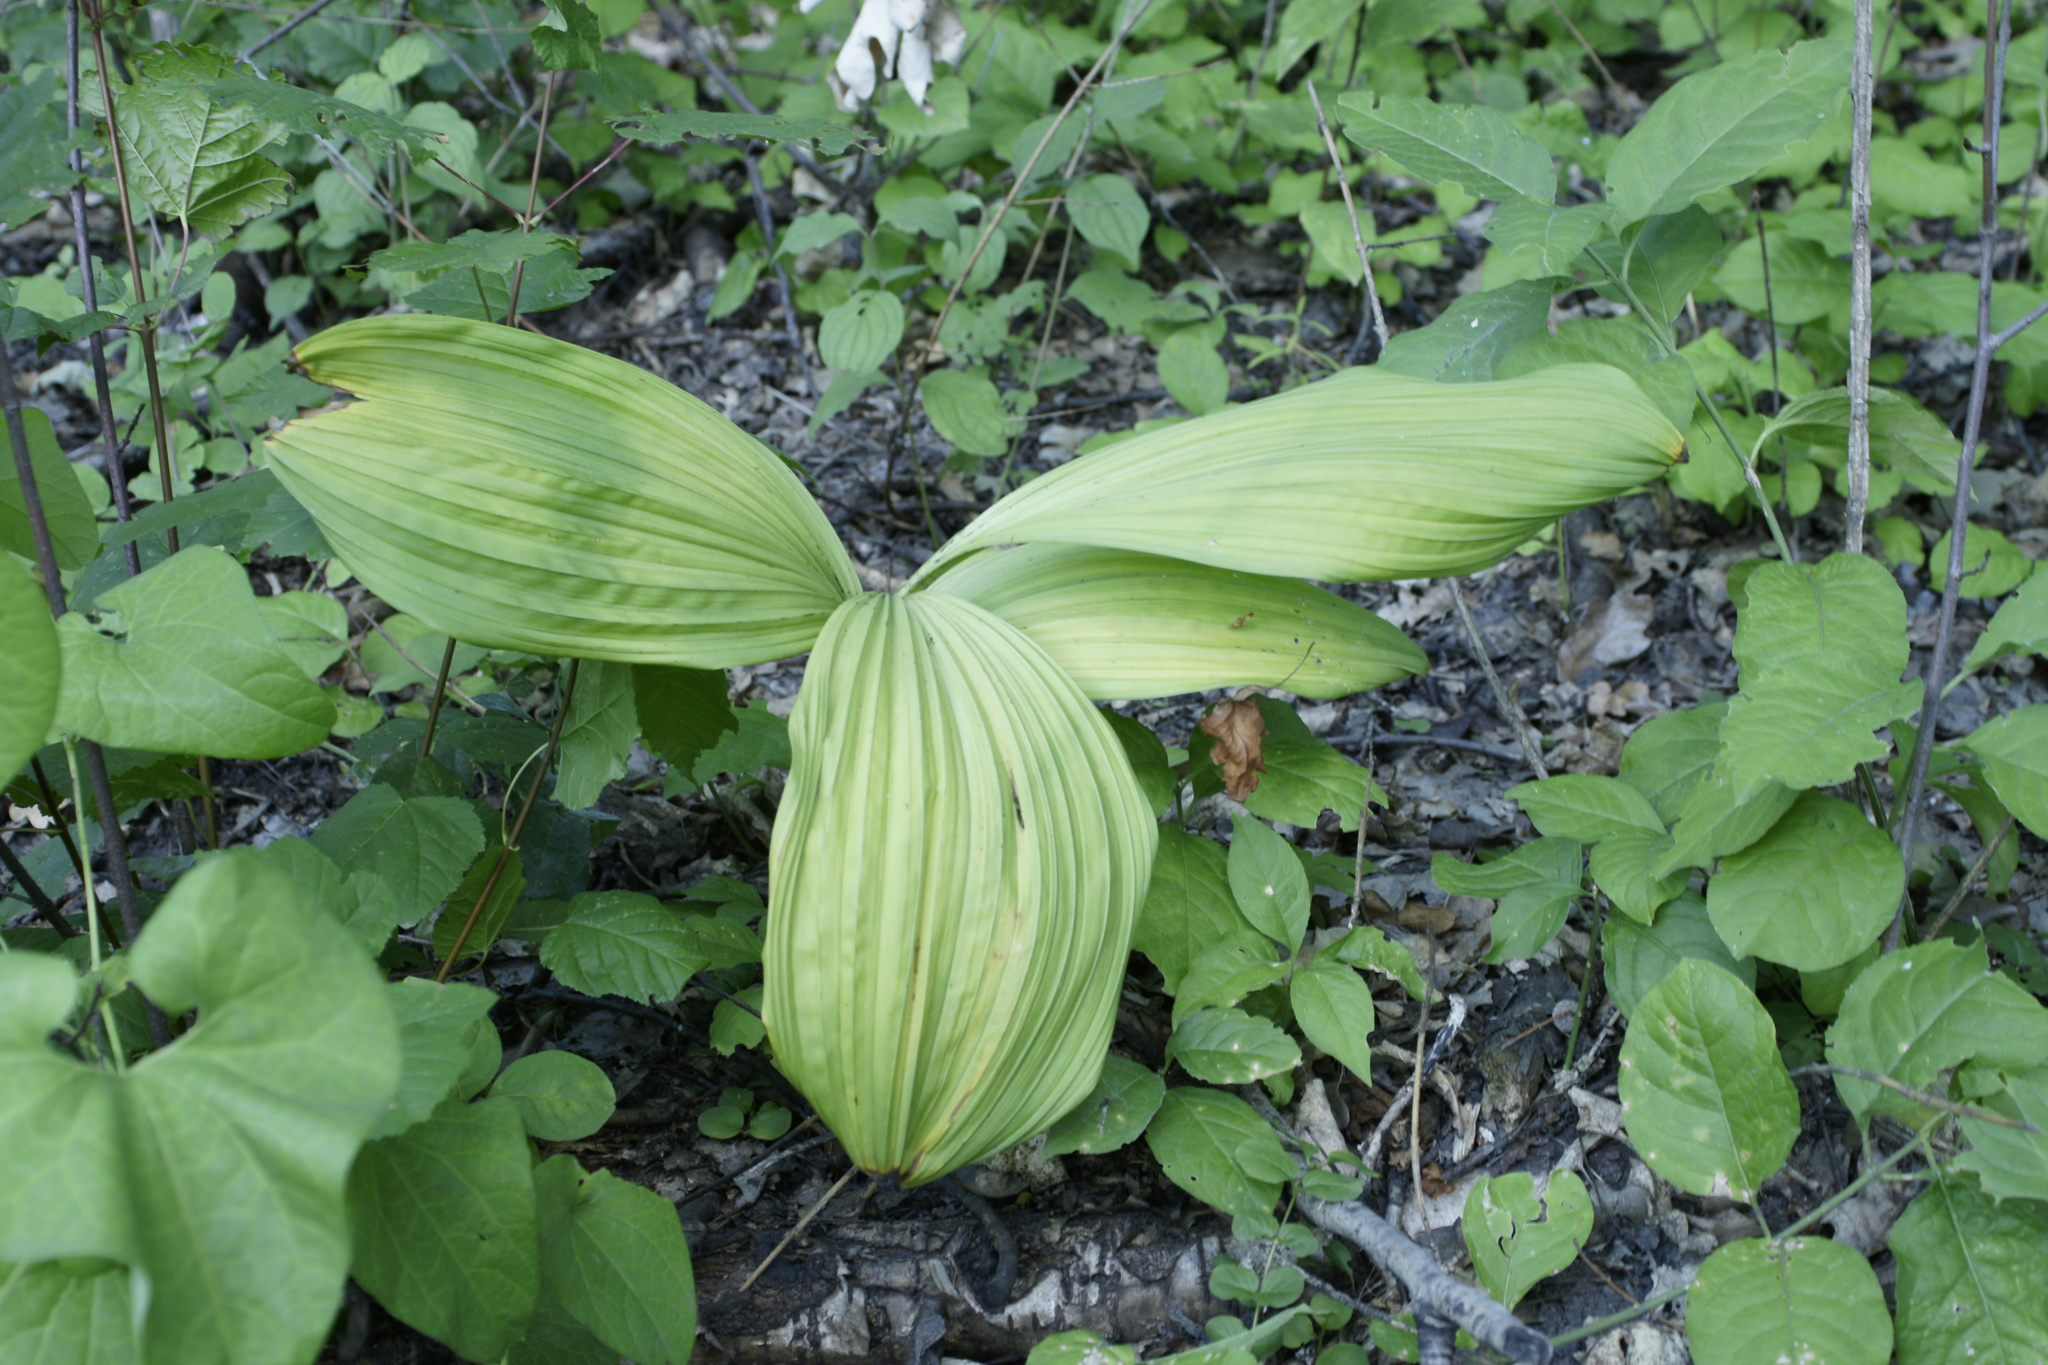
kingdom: Plantae
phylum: Tracheophyta
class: Liliopsida
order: Liliales
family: Melanthiaceae
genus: Veratrum
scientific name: Veratrum nigrum
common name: Black veratrum
